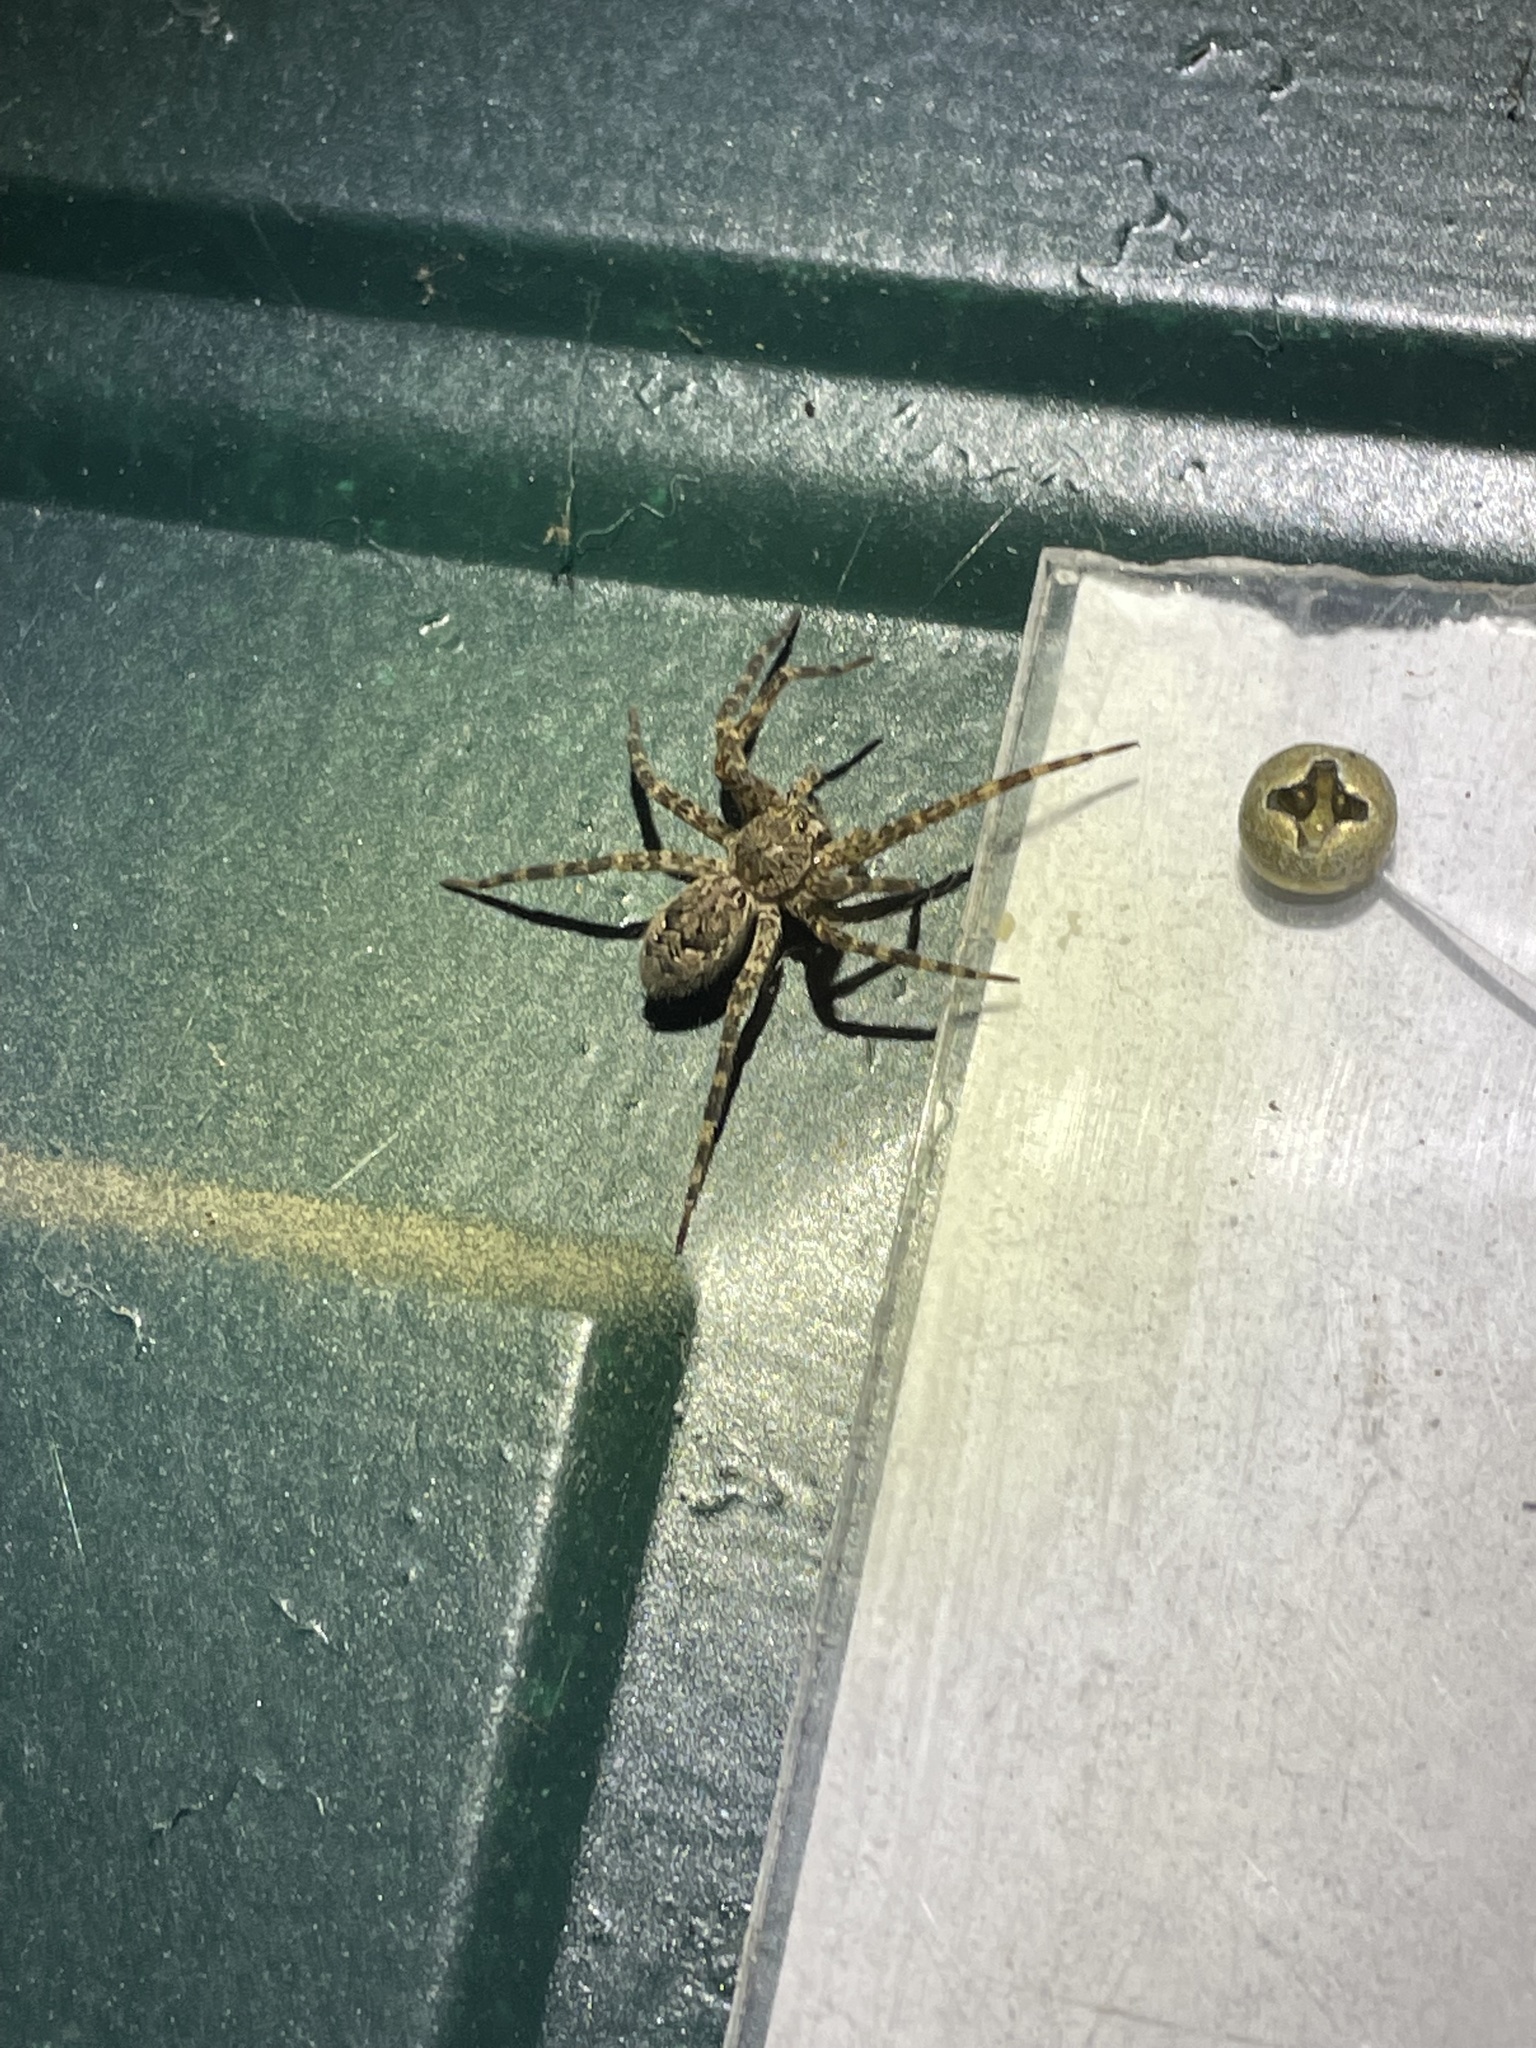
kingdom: Animalia
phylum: Arthropoda
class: Arachnida
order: Araneae
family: Pisauridae
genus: Dolomedes
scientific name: Dolomedes tenebrosus
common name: Dark fishing spider
